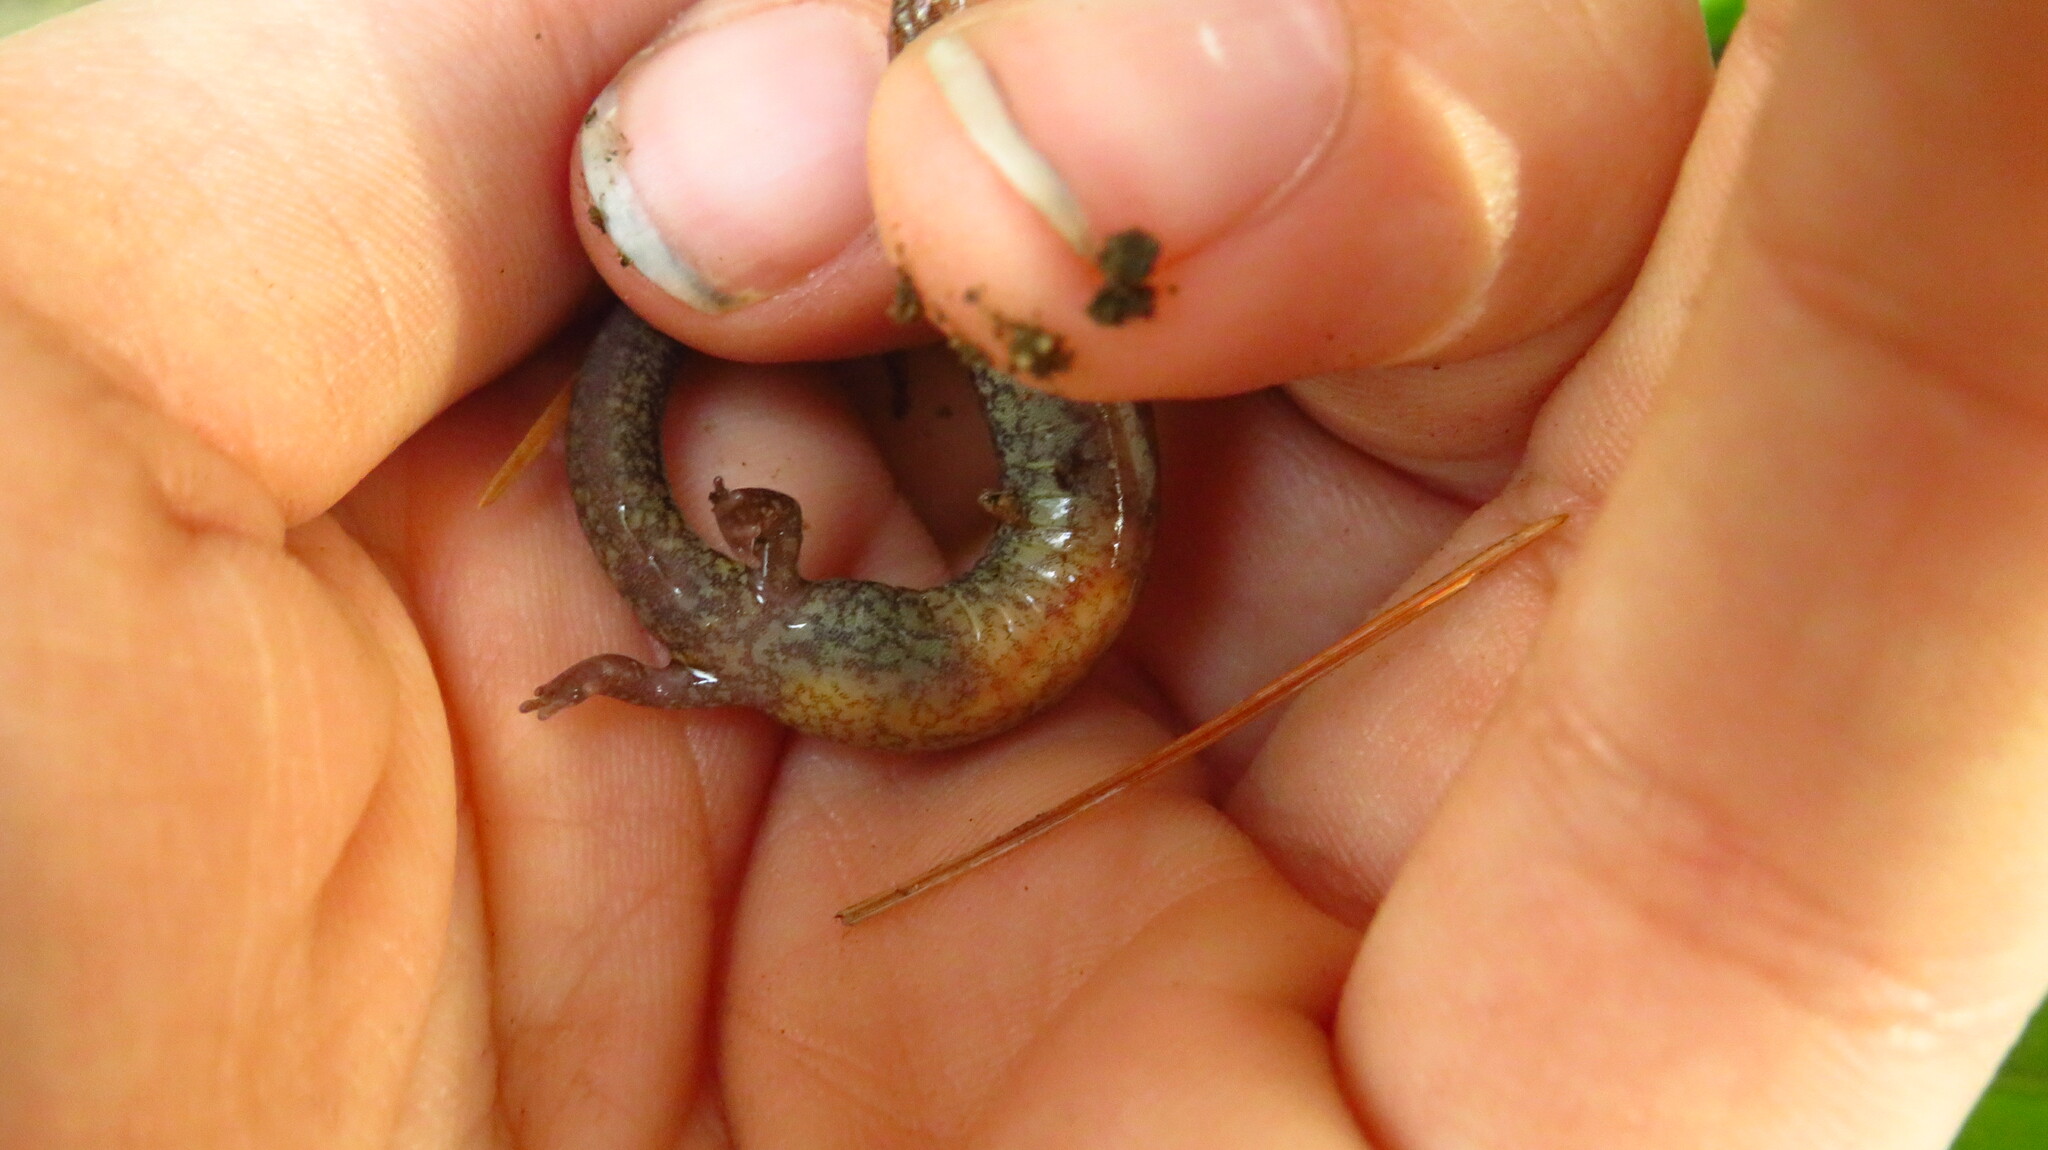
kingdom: Animalia
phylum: Chordata
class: Amphibia
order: Caudata
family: Plethodontidae
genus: Plethodon
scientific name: Plethodon cinereus
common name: Redback salamander
